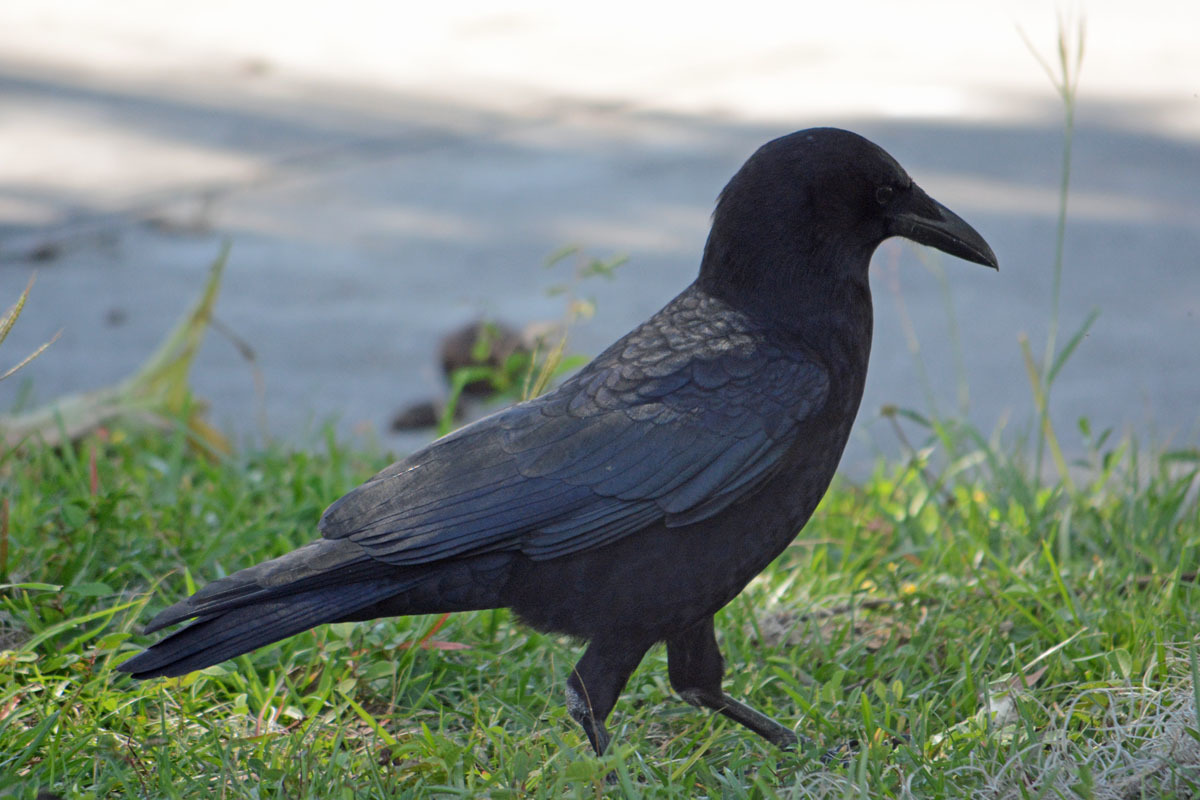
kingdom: Animalia
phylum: Chordata
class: Aves
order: Passeriformes
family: Corvidae
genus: Corvus
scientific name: Corvus brachyrhynchos
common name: American crow
